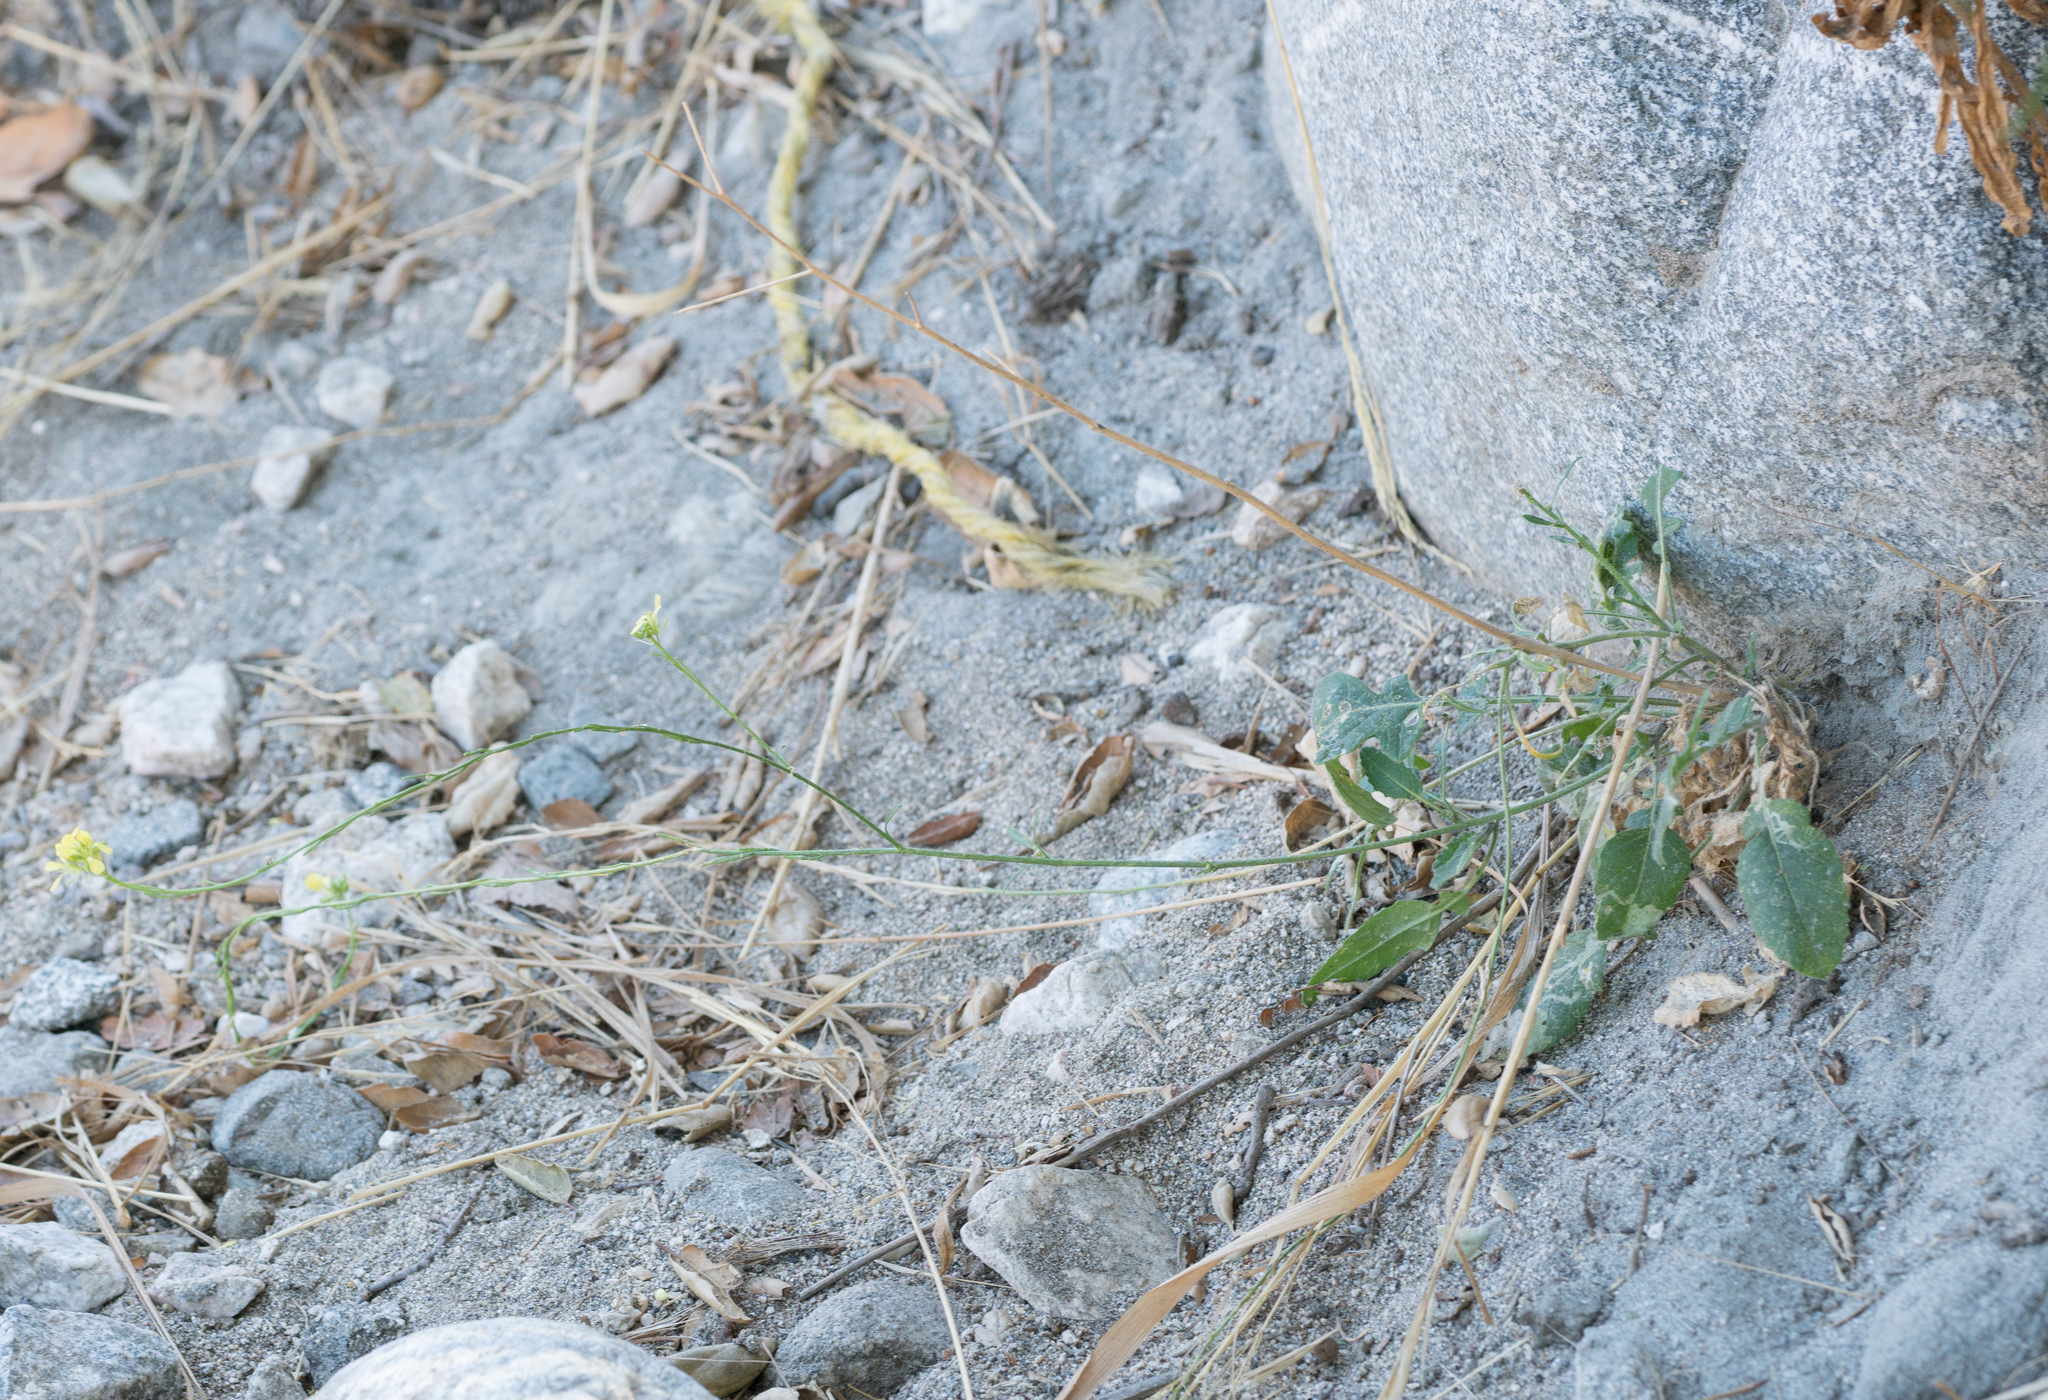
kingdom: Plantae
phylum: Tracheophyta
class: Magnoliopsida
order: Brassicales
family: Brassicaceae
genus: Hirschfeldia
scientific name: Hirschfeldia incana
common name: Hoary mustard
